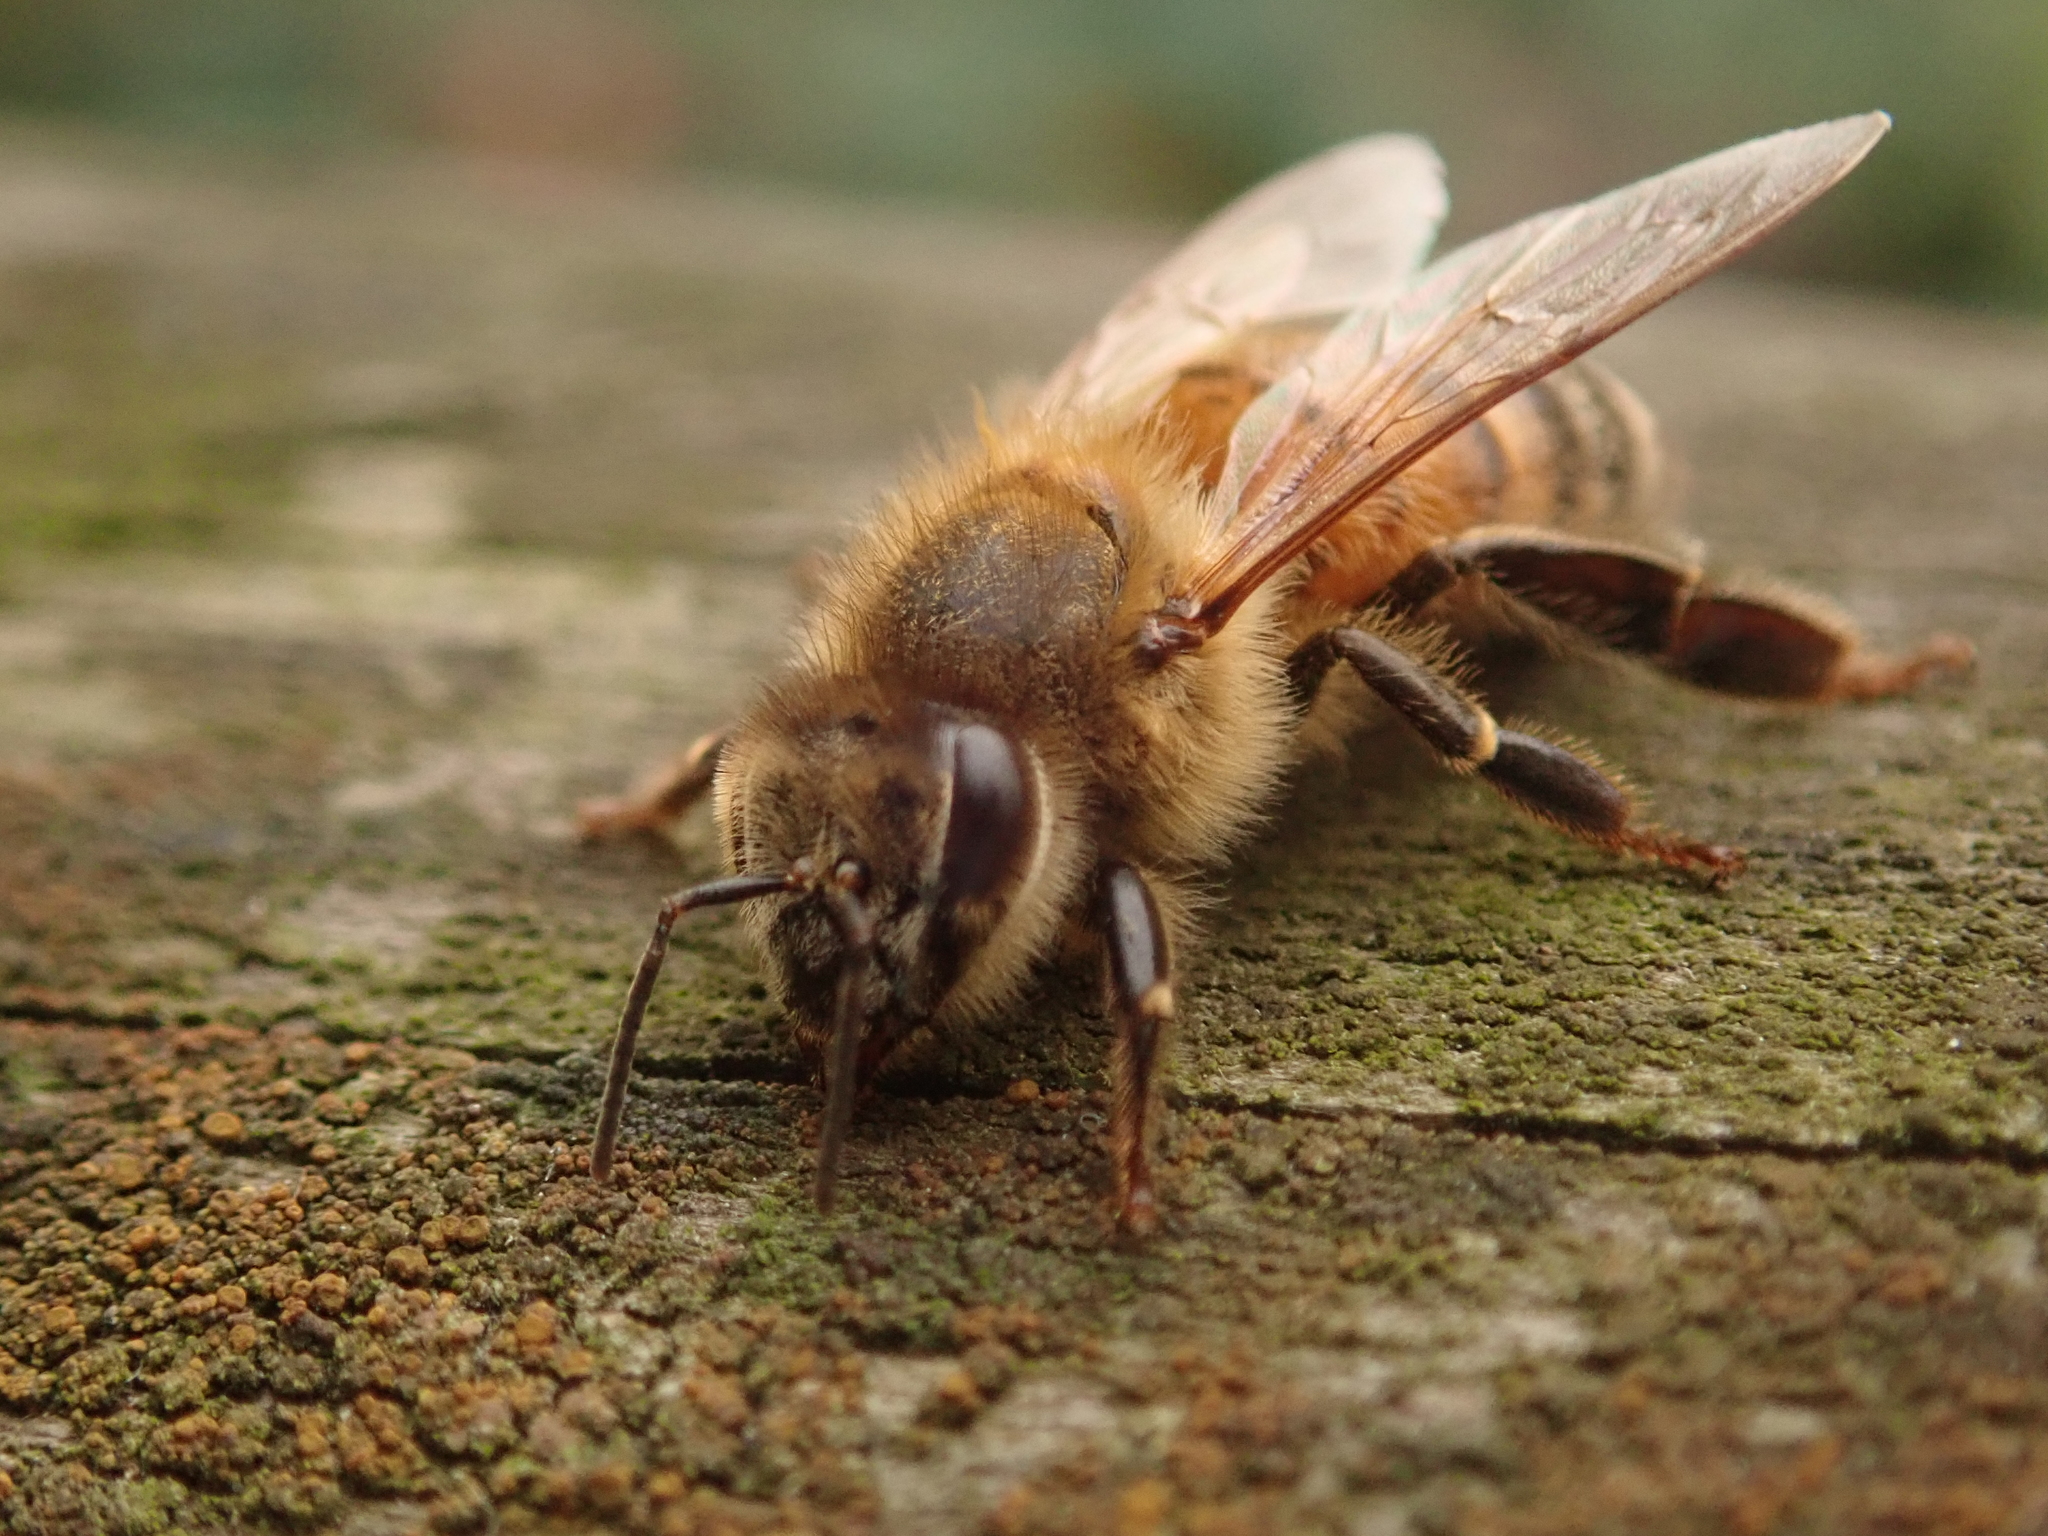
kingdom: Animalia
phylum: Arthropoda
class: Insecta
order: Hymenoptera
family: Apidae
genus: Apis
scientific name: Apis mellifera
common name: Honey bee
